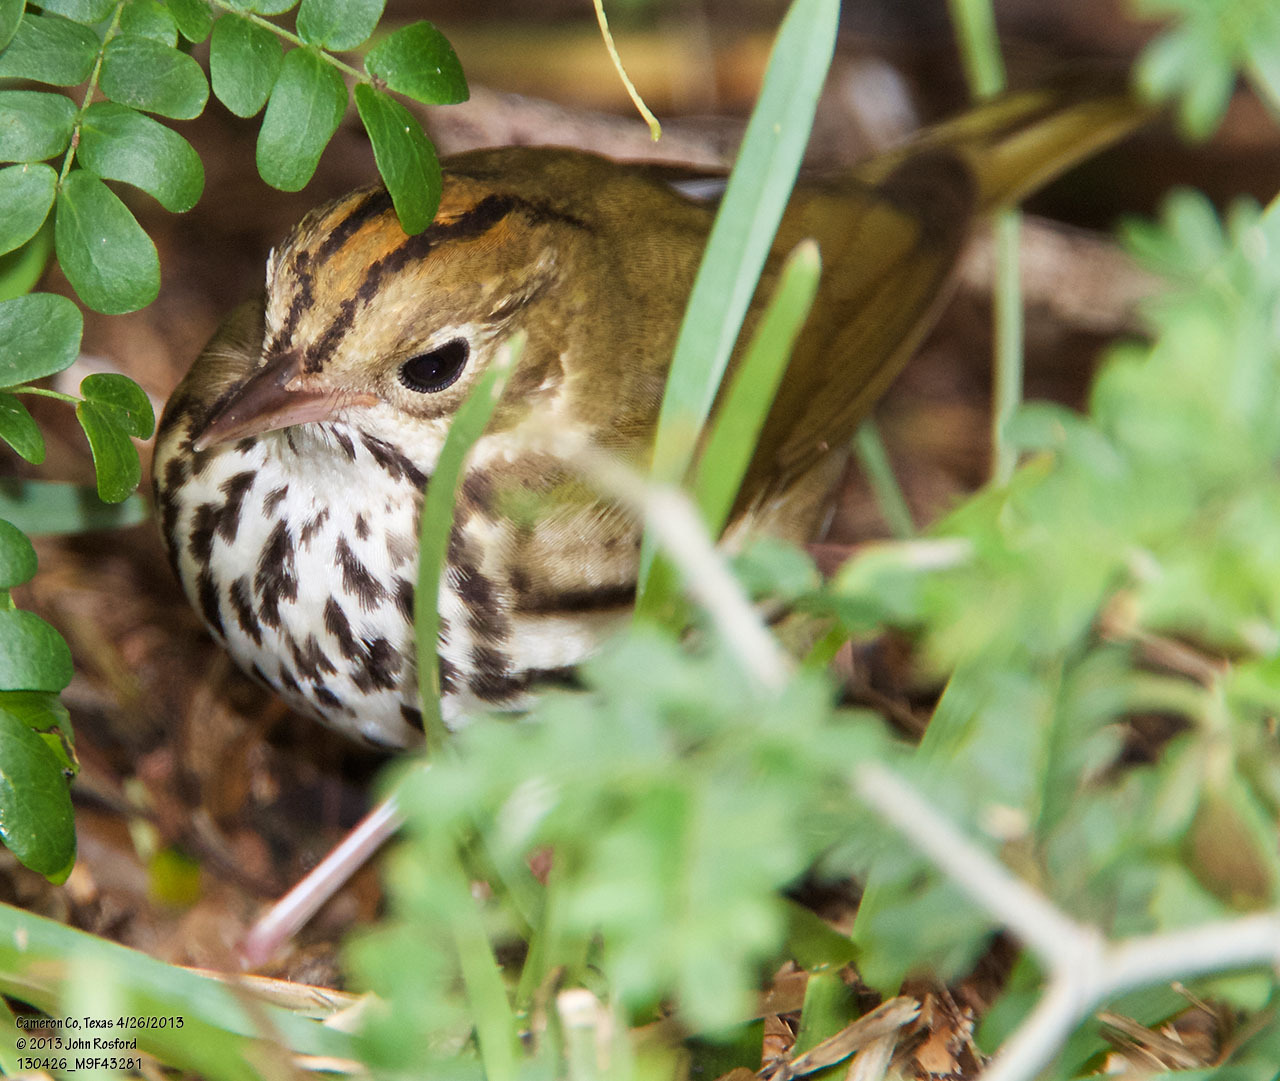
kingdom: Animalia
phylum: Chordata
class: Aves
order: Passeriformes
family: Parulidae
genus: Seiurus
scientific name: Seiurus aurocapilla
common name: Ovenbird
